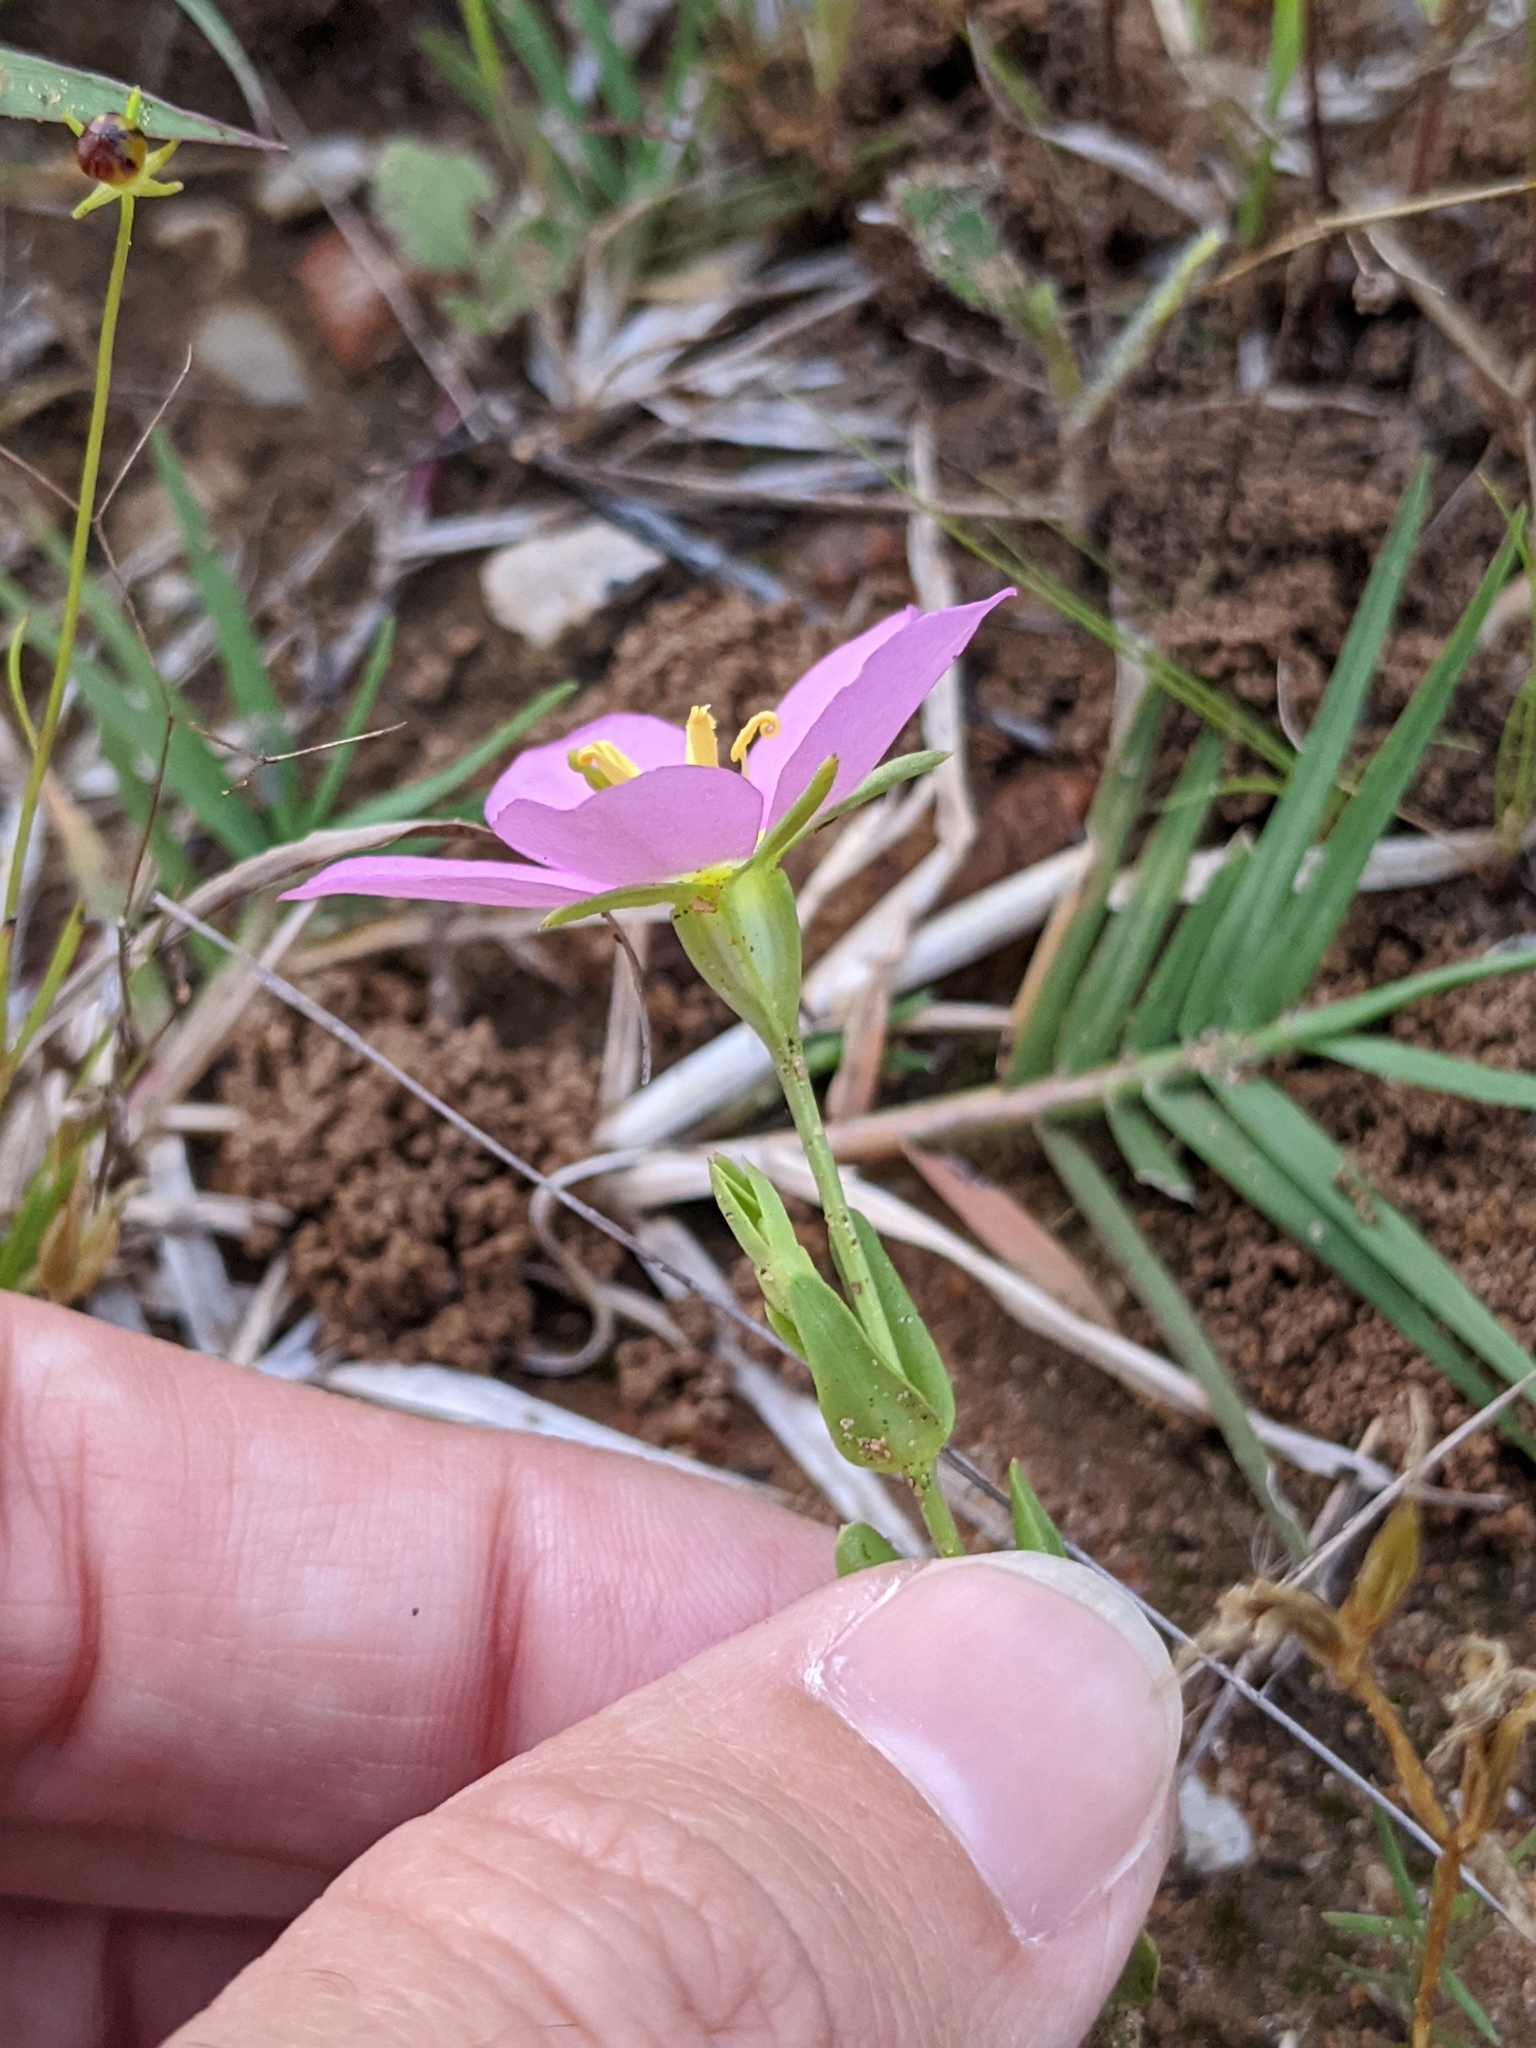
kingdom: Plantae
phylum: Tracheophyta
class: Magnoliopsida
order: Gentianales
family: Gentianaceae
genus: Sabatia
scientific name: Sabatia campestris
